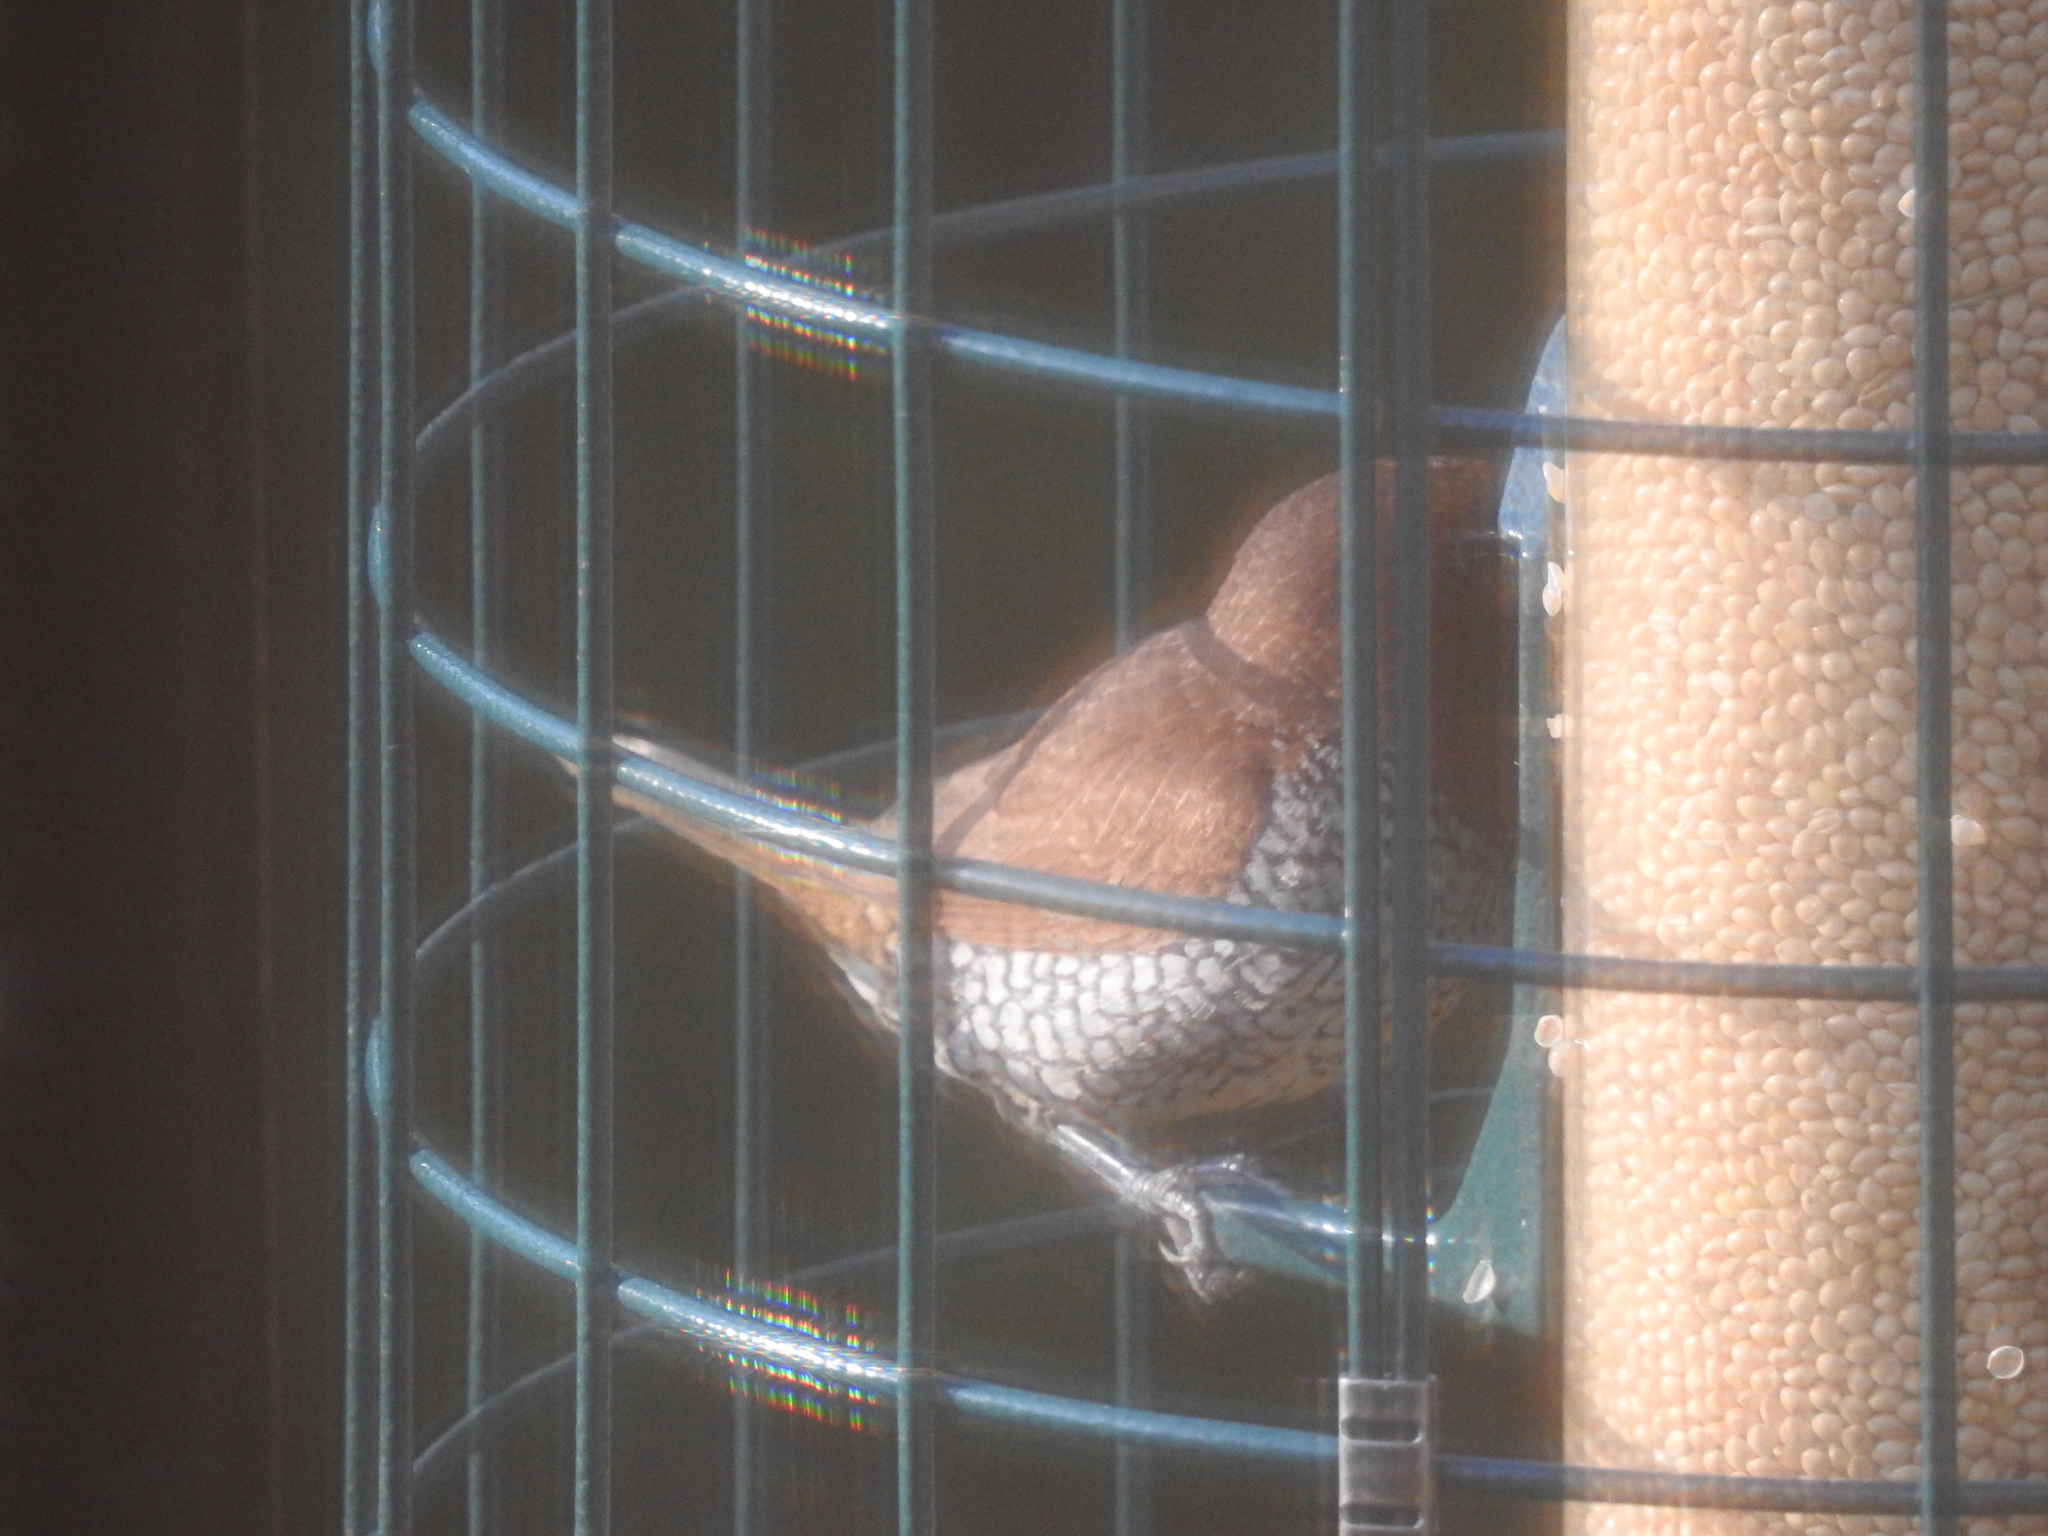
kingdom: Animalia
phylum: Chordata
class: Aves
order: Passeriformes
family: Estrildidae
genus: Lonchura
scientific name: Lonchura punctulata
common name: Scaly-breasted munia
